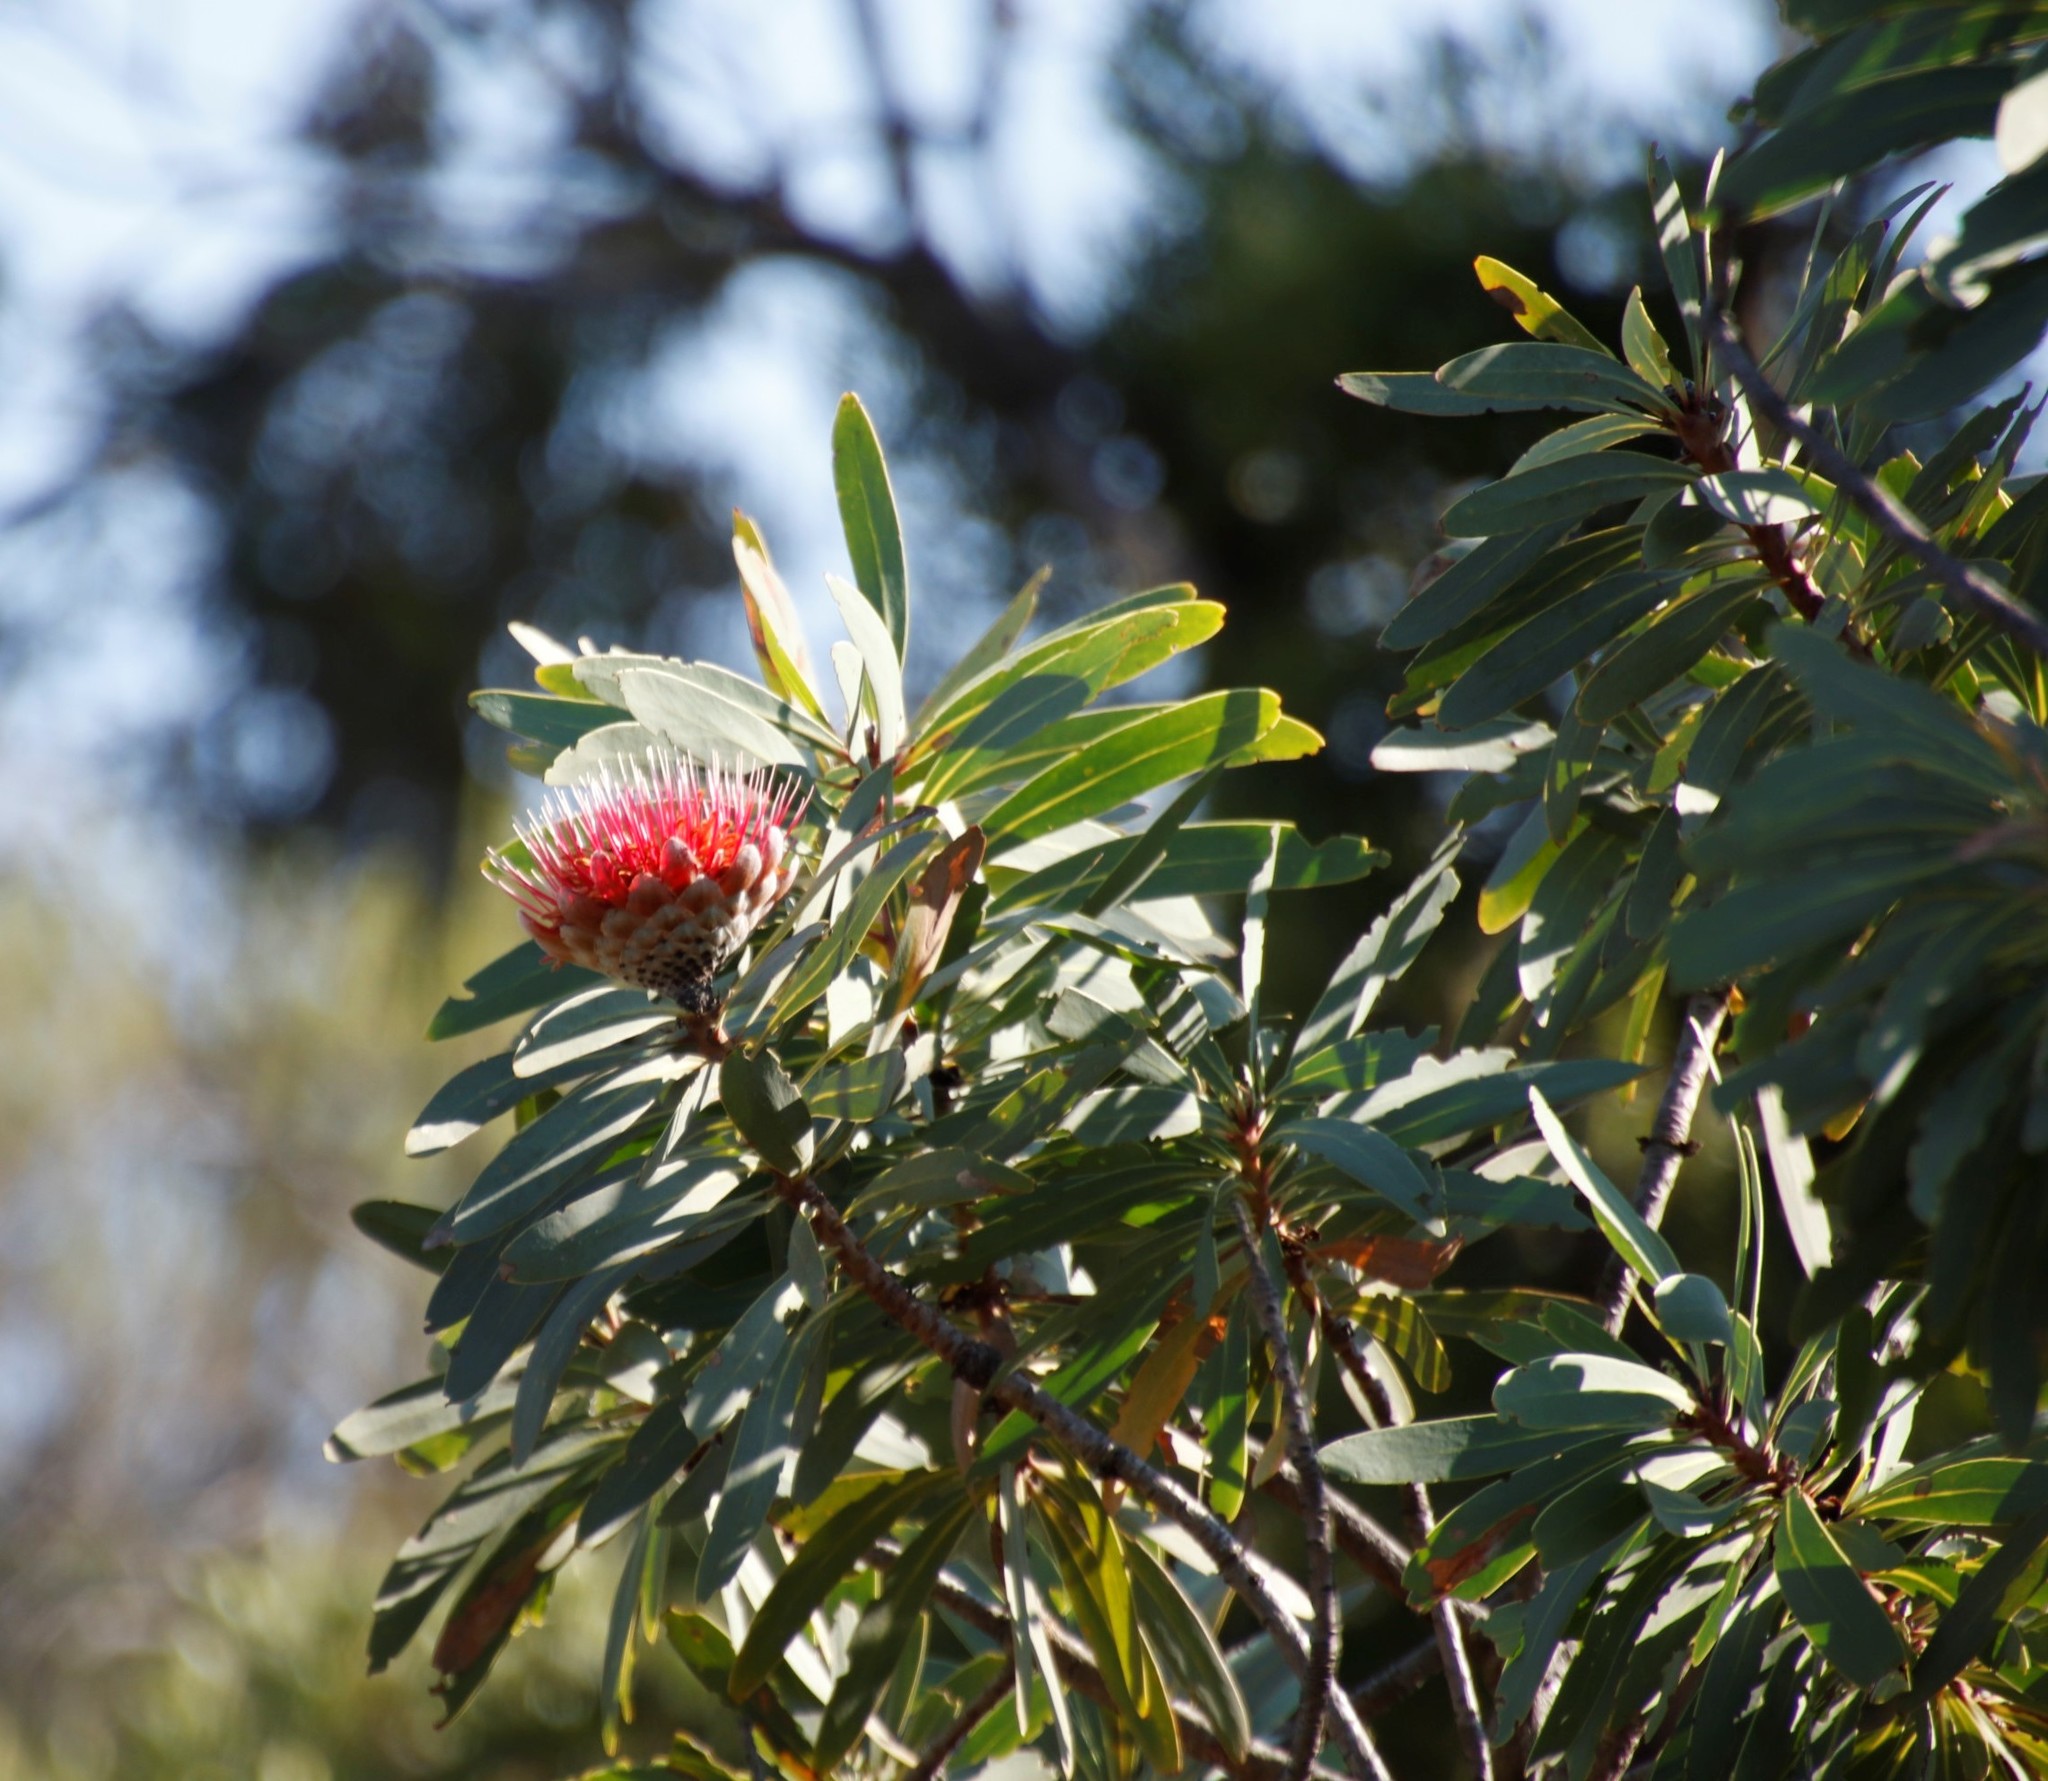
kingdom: Plantae
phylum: Tracheophyta
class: Magnoliopsida
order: Proteales
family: Proteaceae
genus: Protea
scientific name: Protea laetans
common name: Blyde protea
